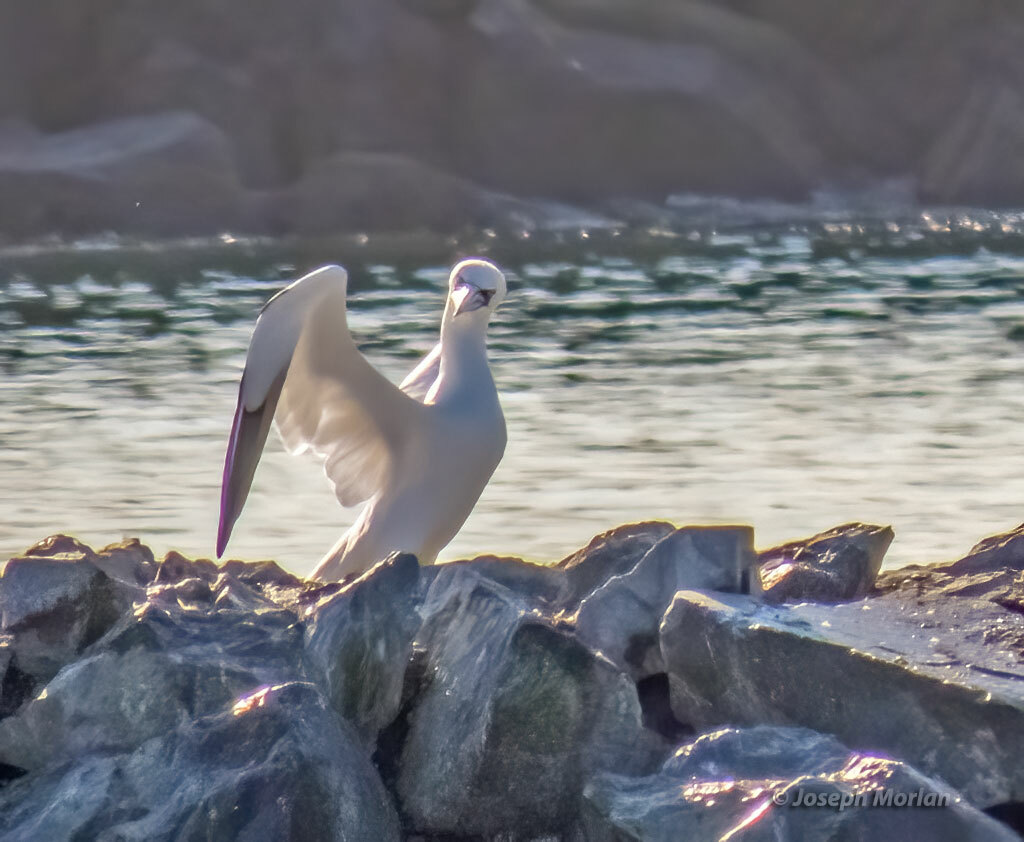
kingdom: Animalia
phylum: Chordata
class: Aves
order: Suliformes
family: Sulidae
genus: Morus
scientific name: Morus bassanus
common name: Northern gannet
